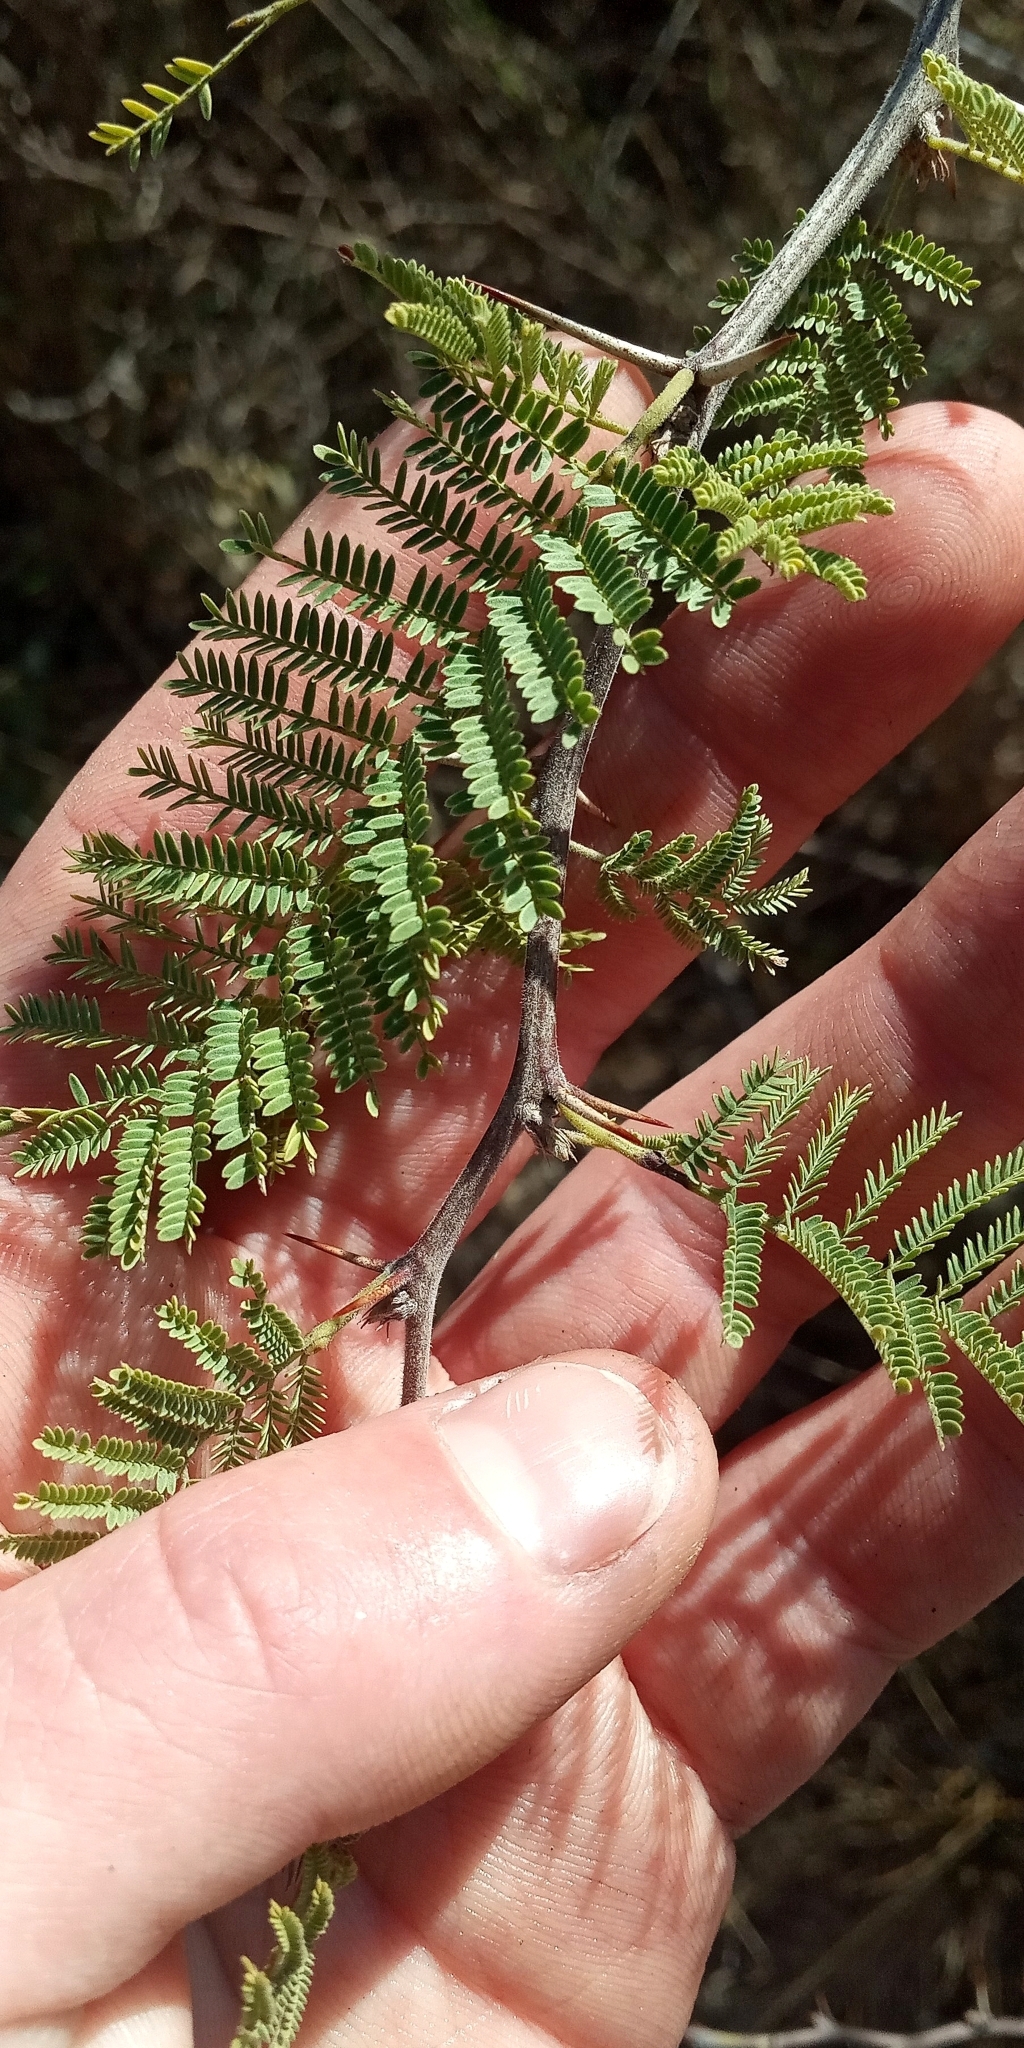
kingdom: Plantae
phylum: Tracheophyta
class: Magnoliopsida
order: Fabales
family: Fabaceae
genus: Vachellia
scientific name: Vachellia caven
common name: Roman cassie
